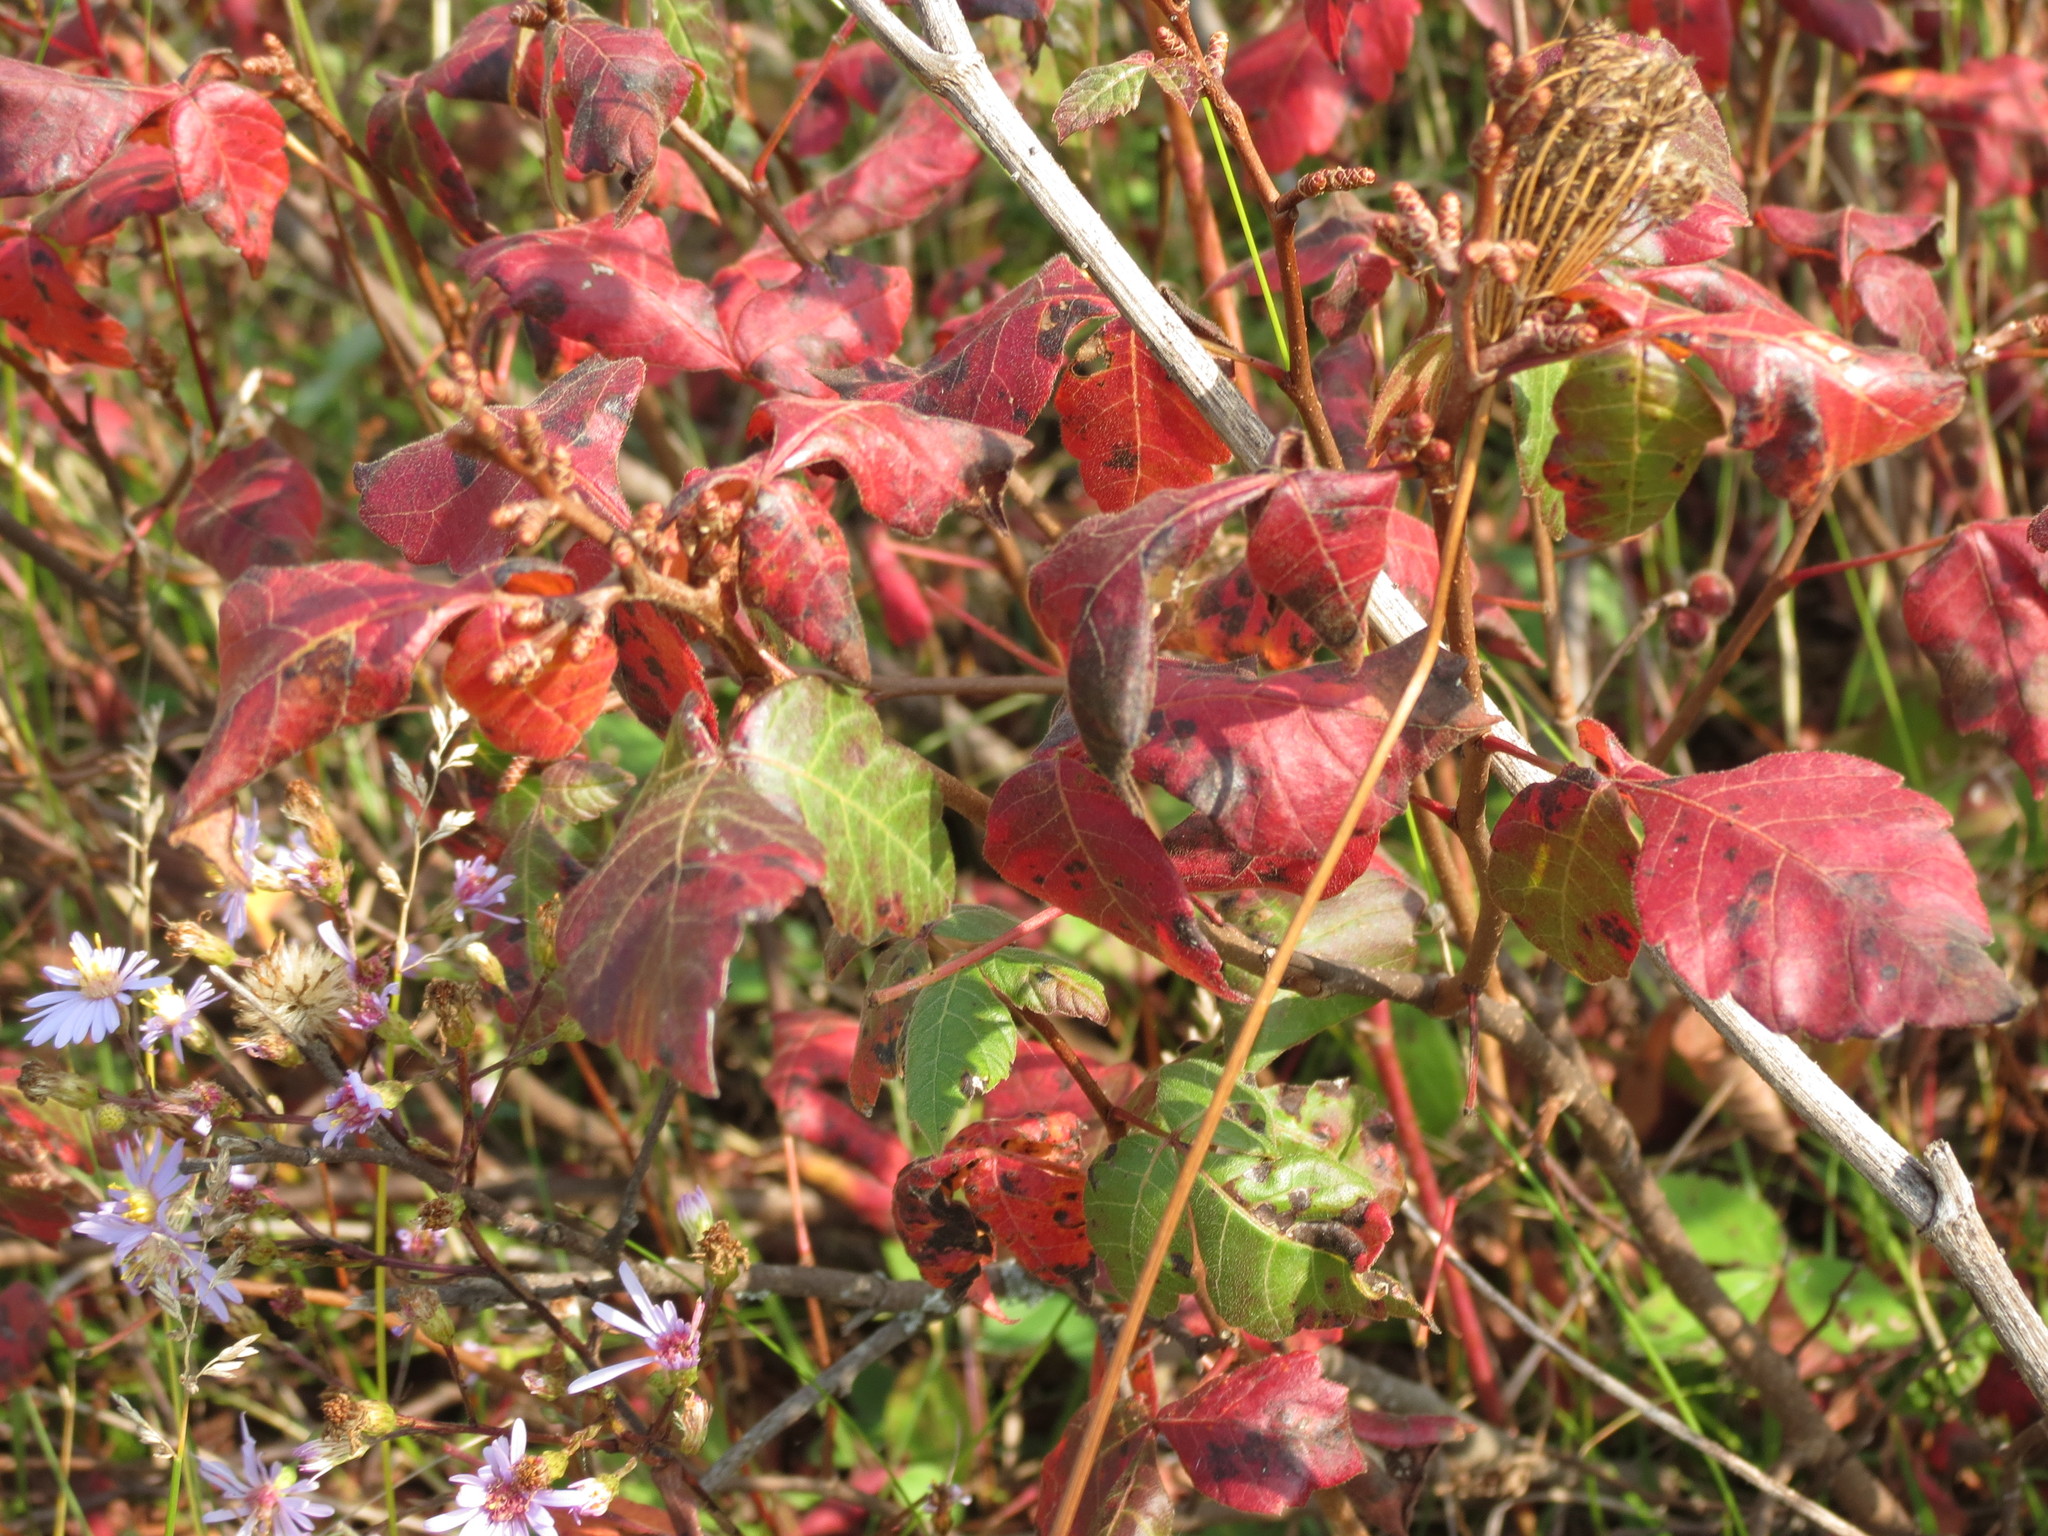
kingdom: Plantae
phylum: Tracheophyta
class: Magnoliopsida
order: Sapindales
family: Anacardiaceae
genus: Rhus
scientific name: Rhus aromatica
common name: Aromatic sumac
